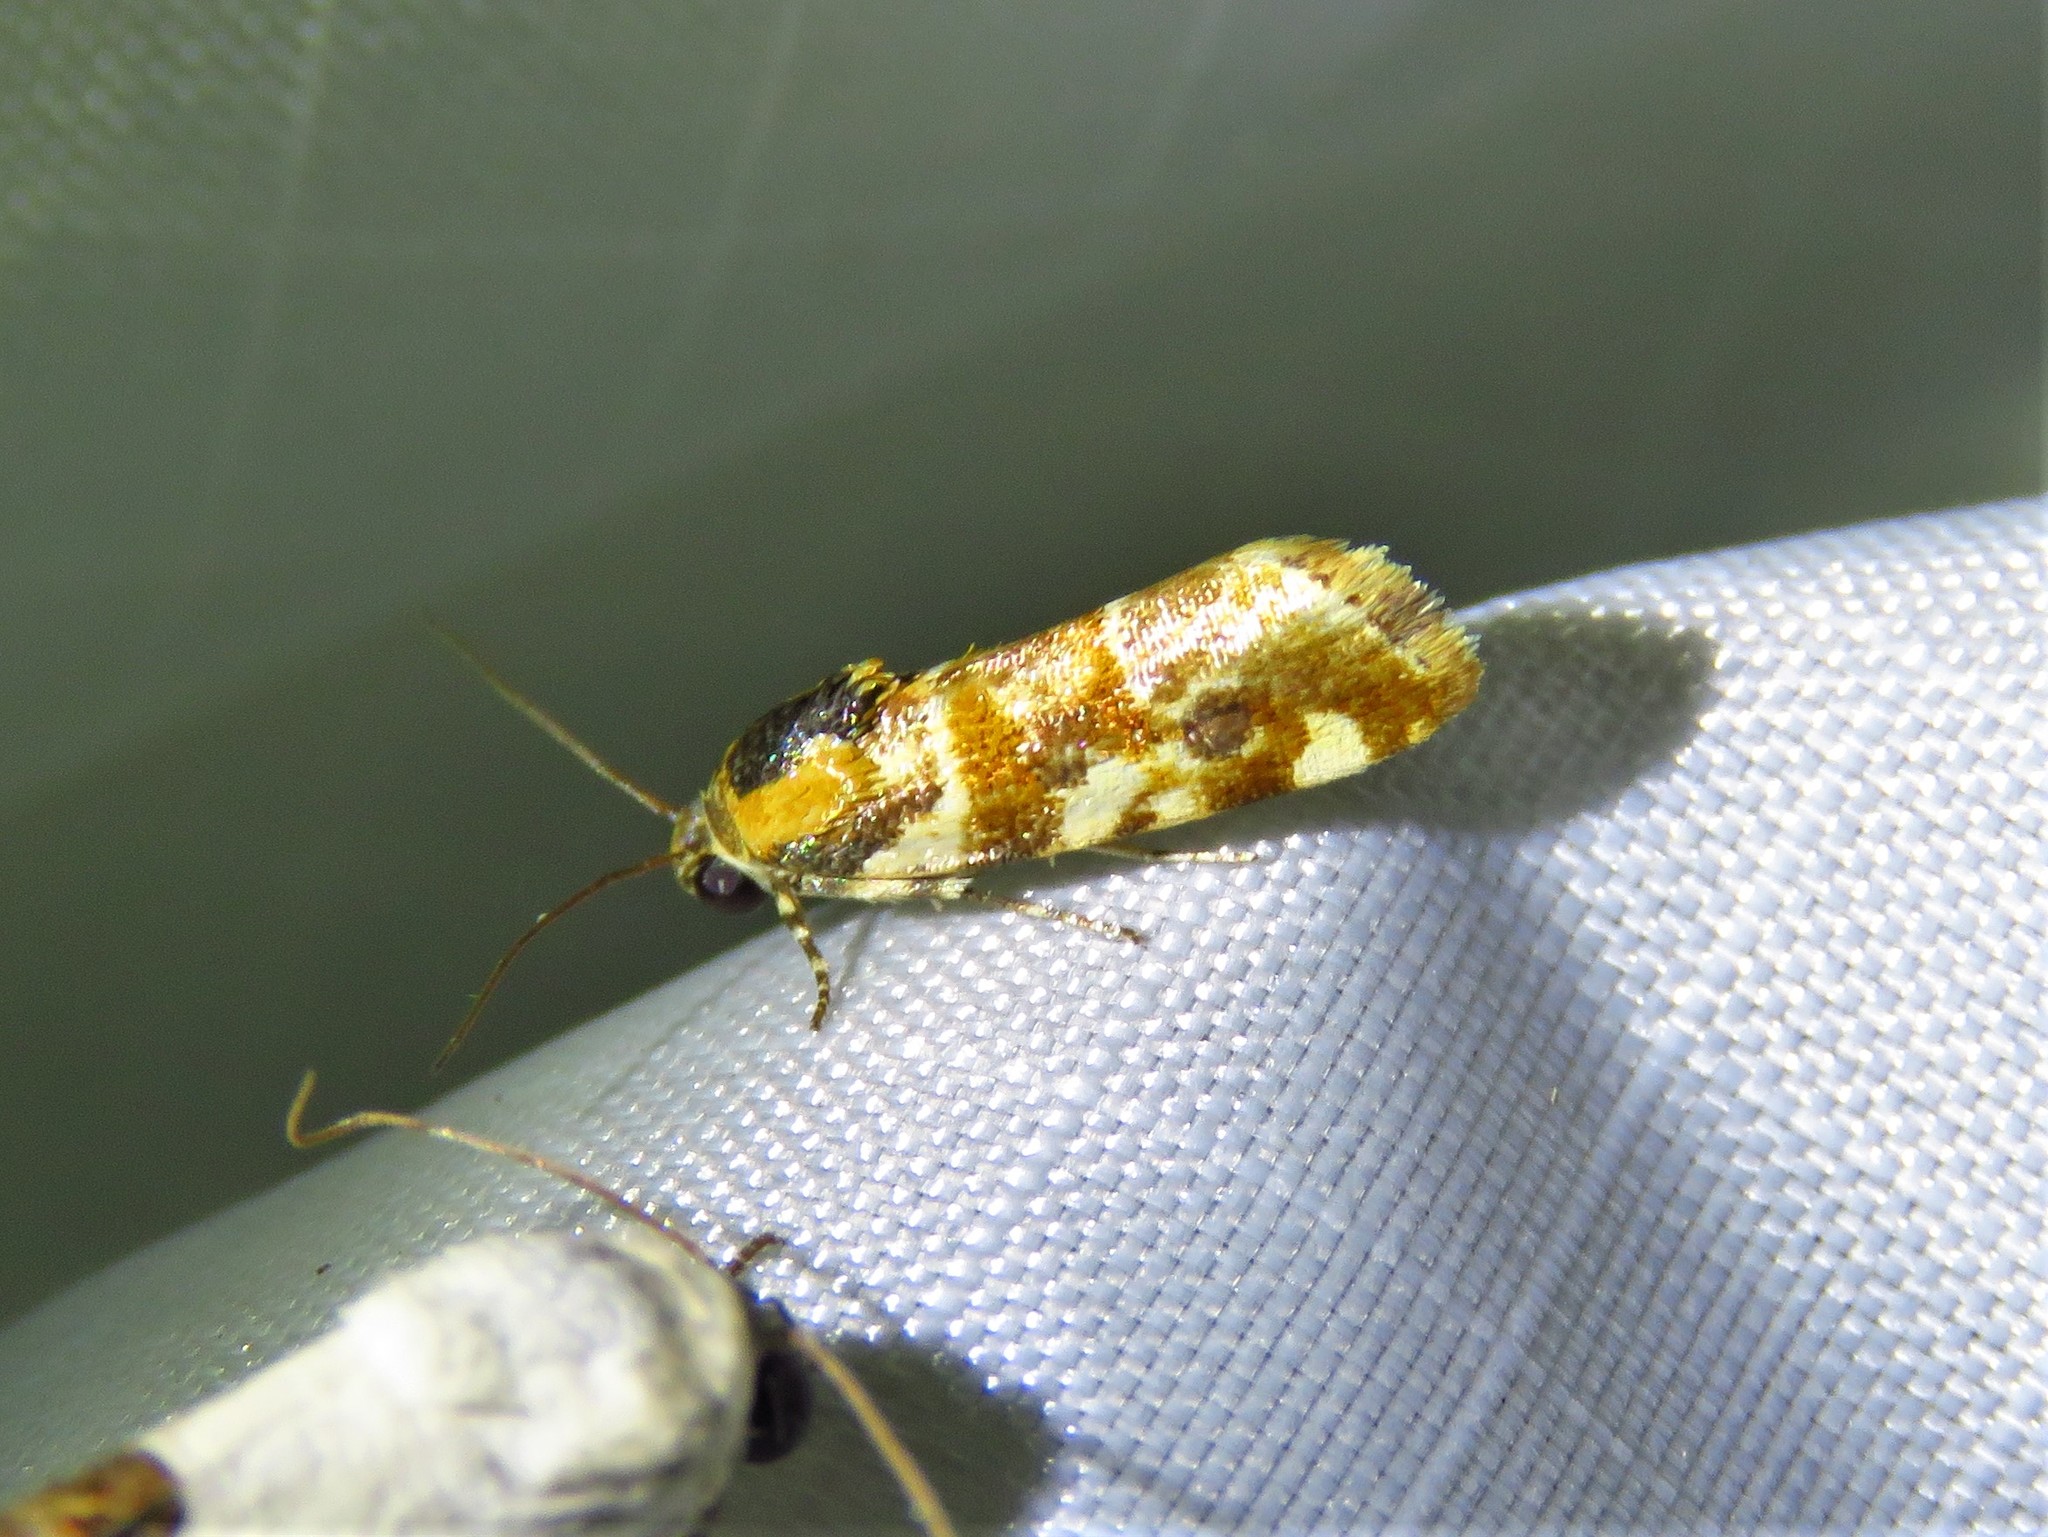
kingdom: Animalia
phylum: Arthropoda
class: Insecta
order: Lepidoptera
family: Noctuidae
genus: Spragueia
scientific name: Spragueia jaguaralis
